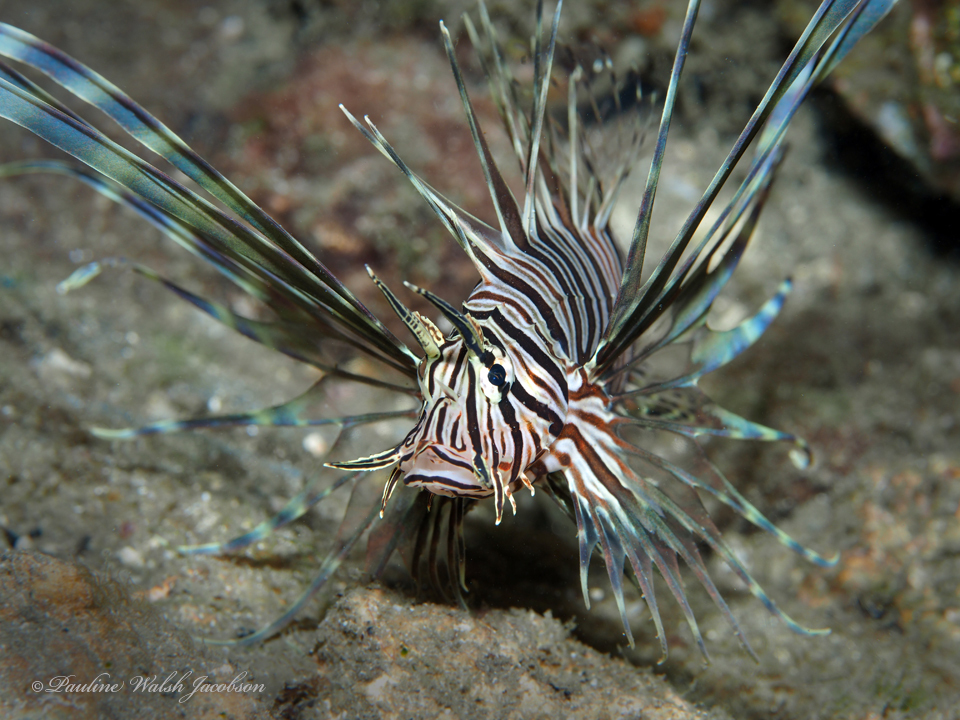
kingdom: Animalia
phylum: Chordata
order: Scorpaeniformes
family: Scorpaenidae
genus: Pterois
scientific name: Pterois volitans
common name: Lionfish
